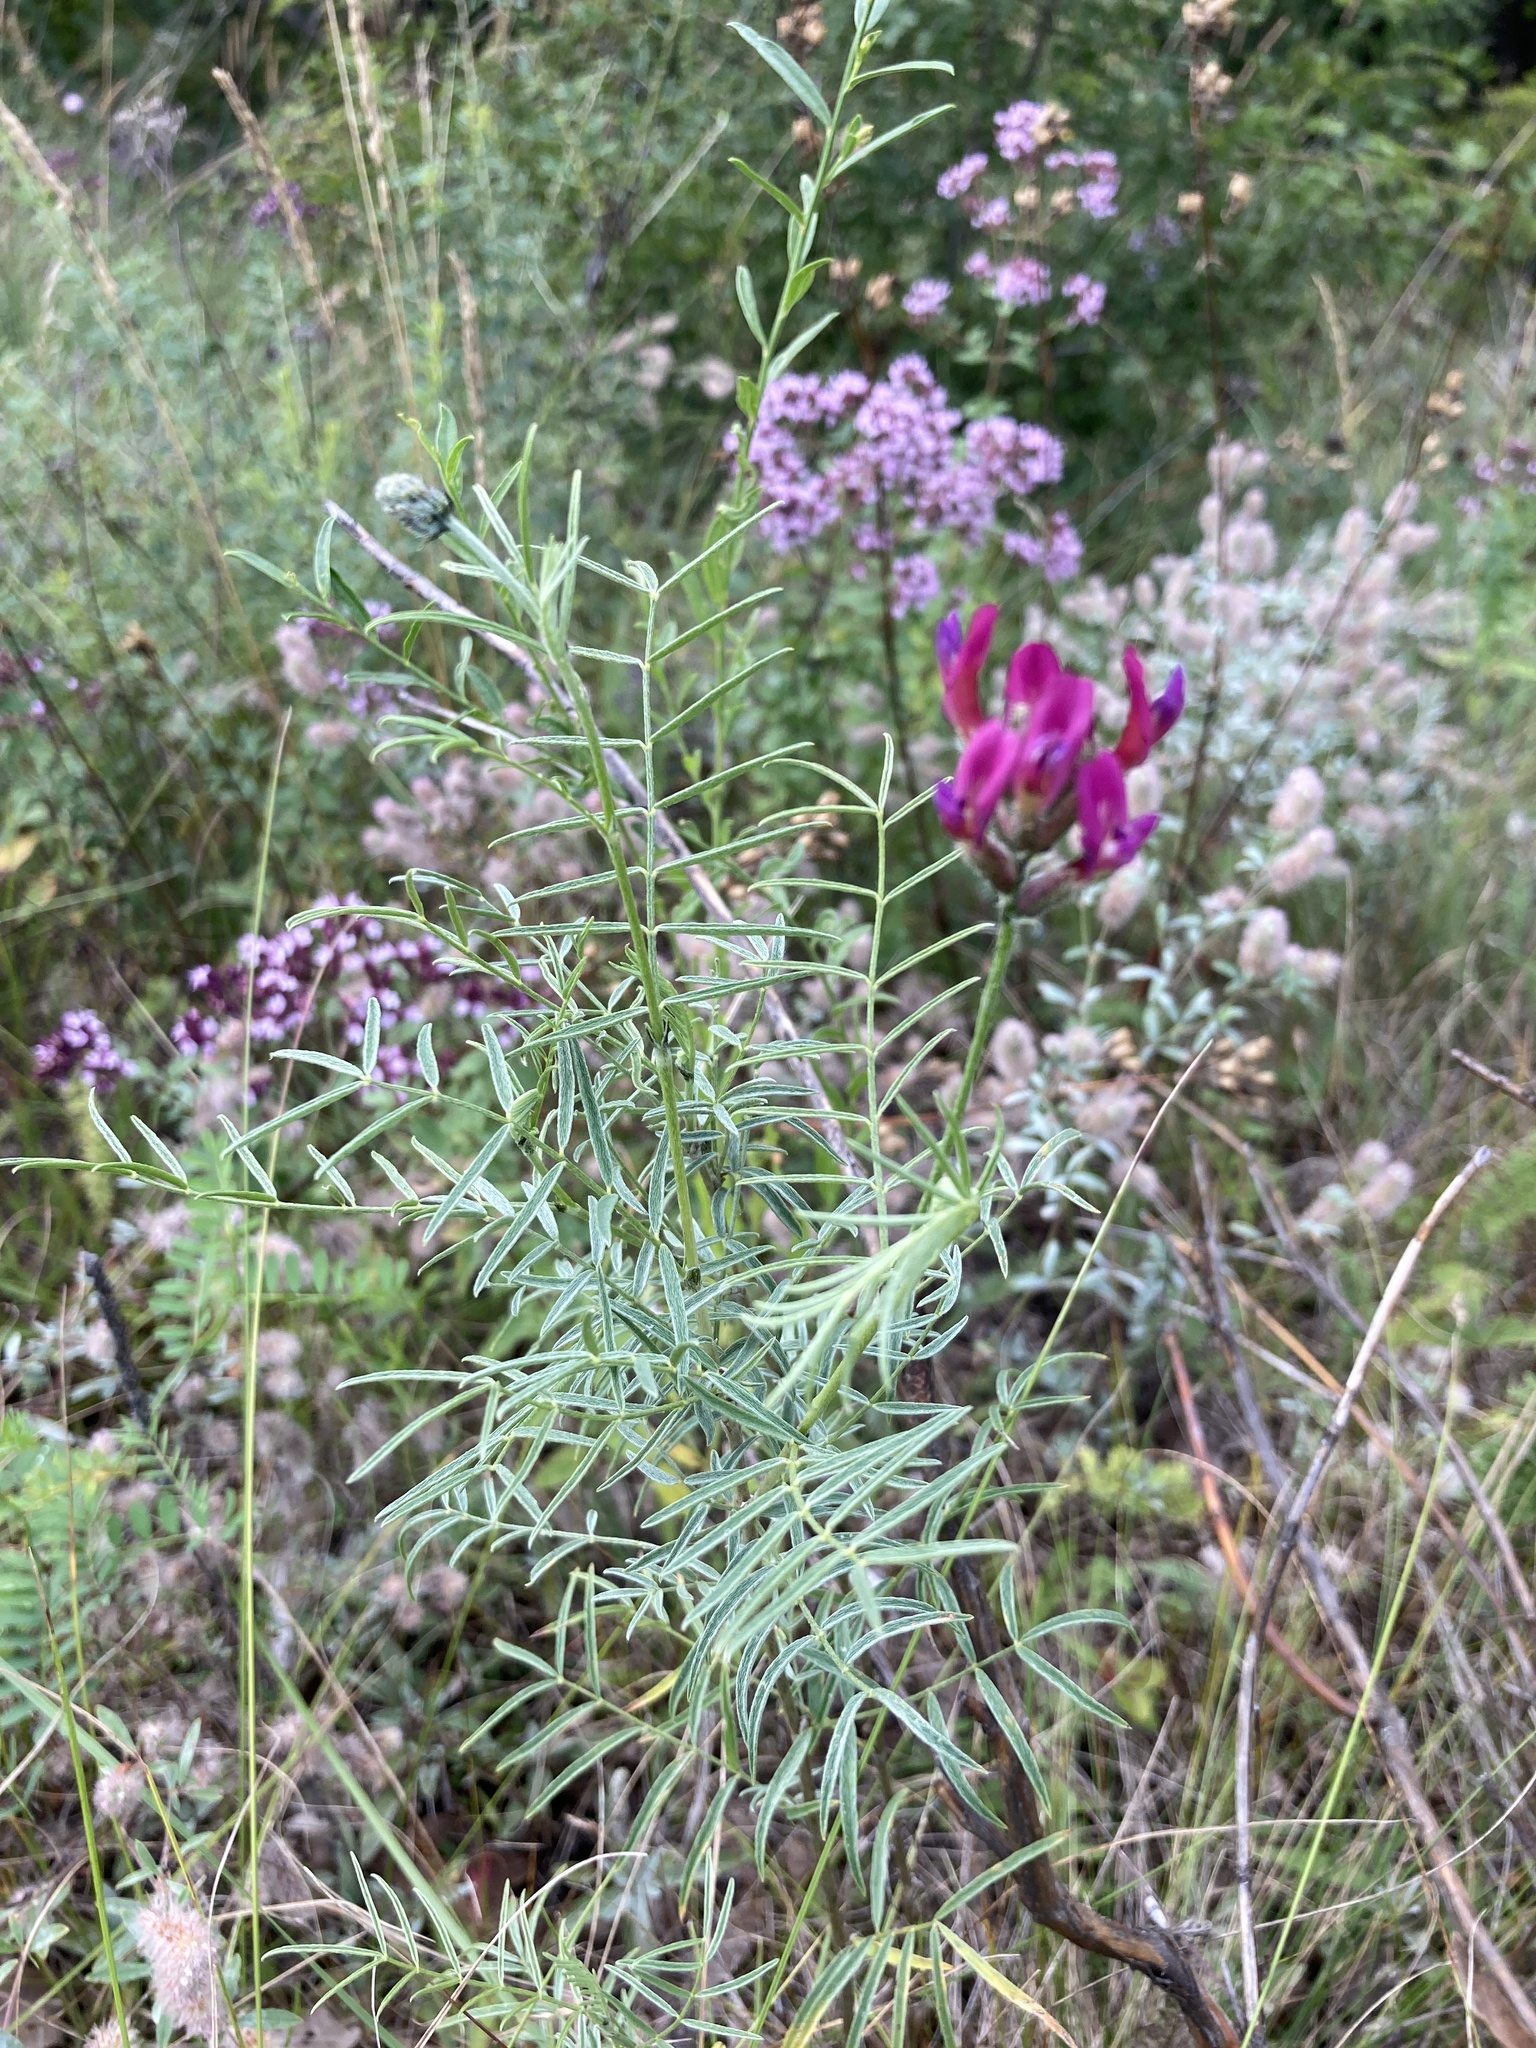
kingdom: Plantae
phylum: Tracheophyta
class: Magnoliopsida
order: Fabales
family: Fabaceae
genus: Astragalus
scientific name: Astragalus cornutus
